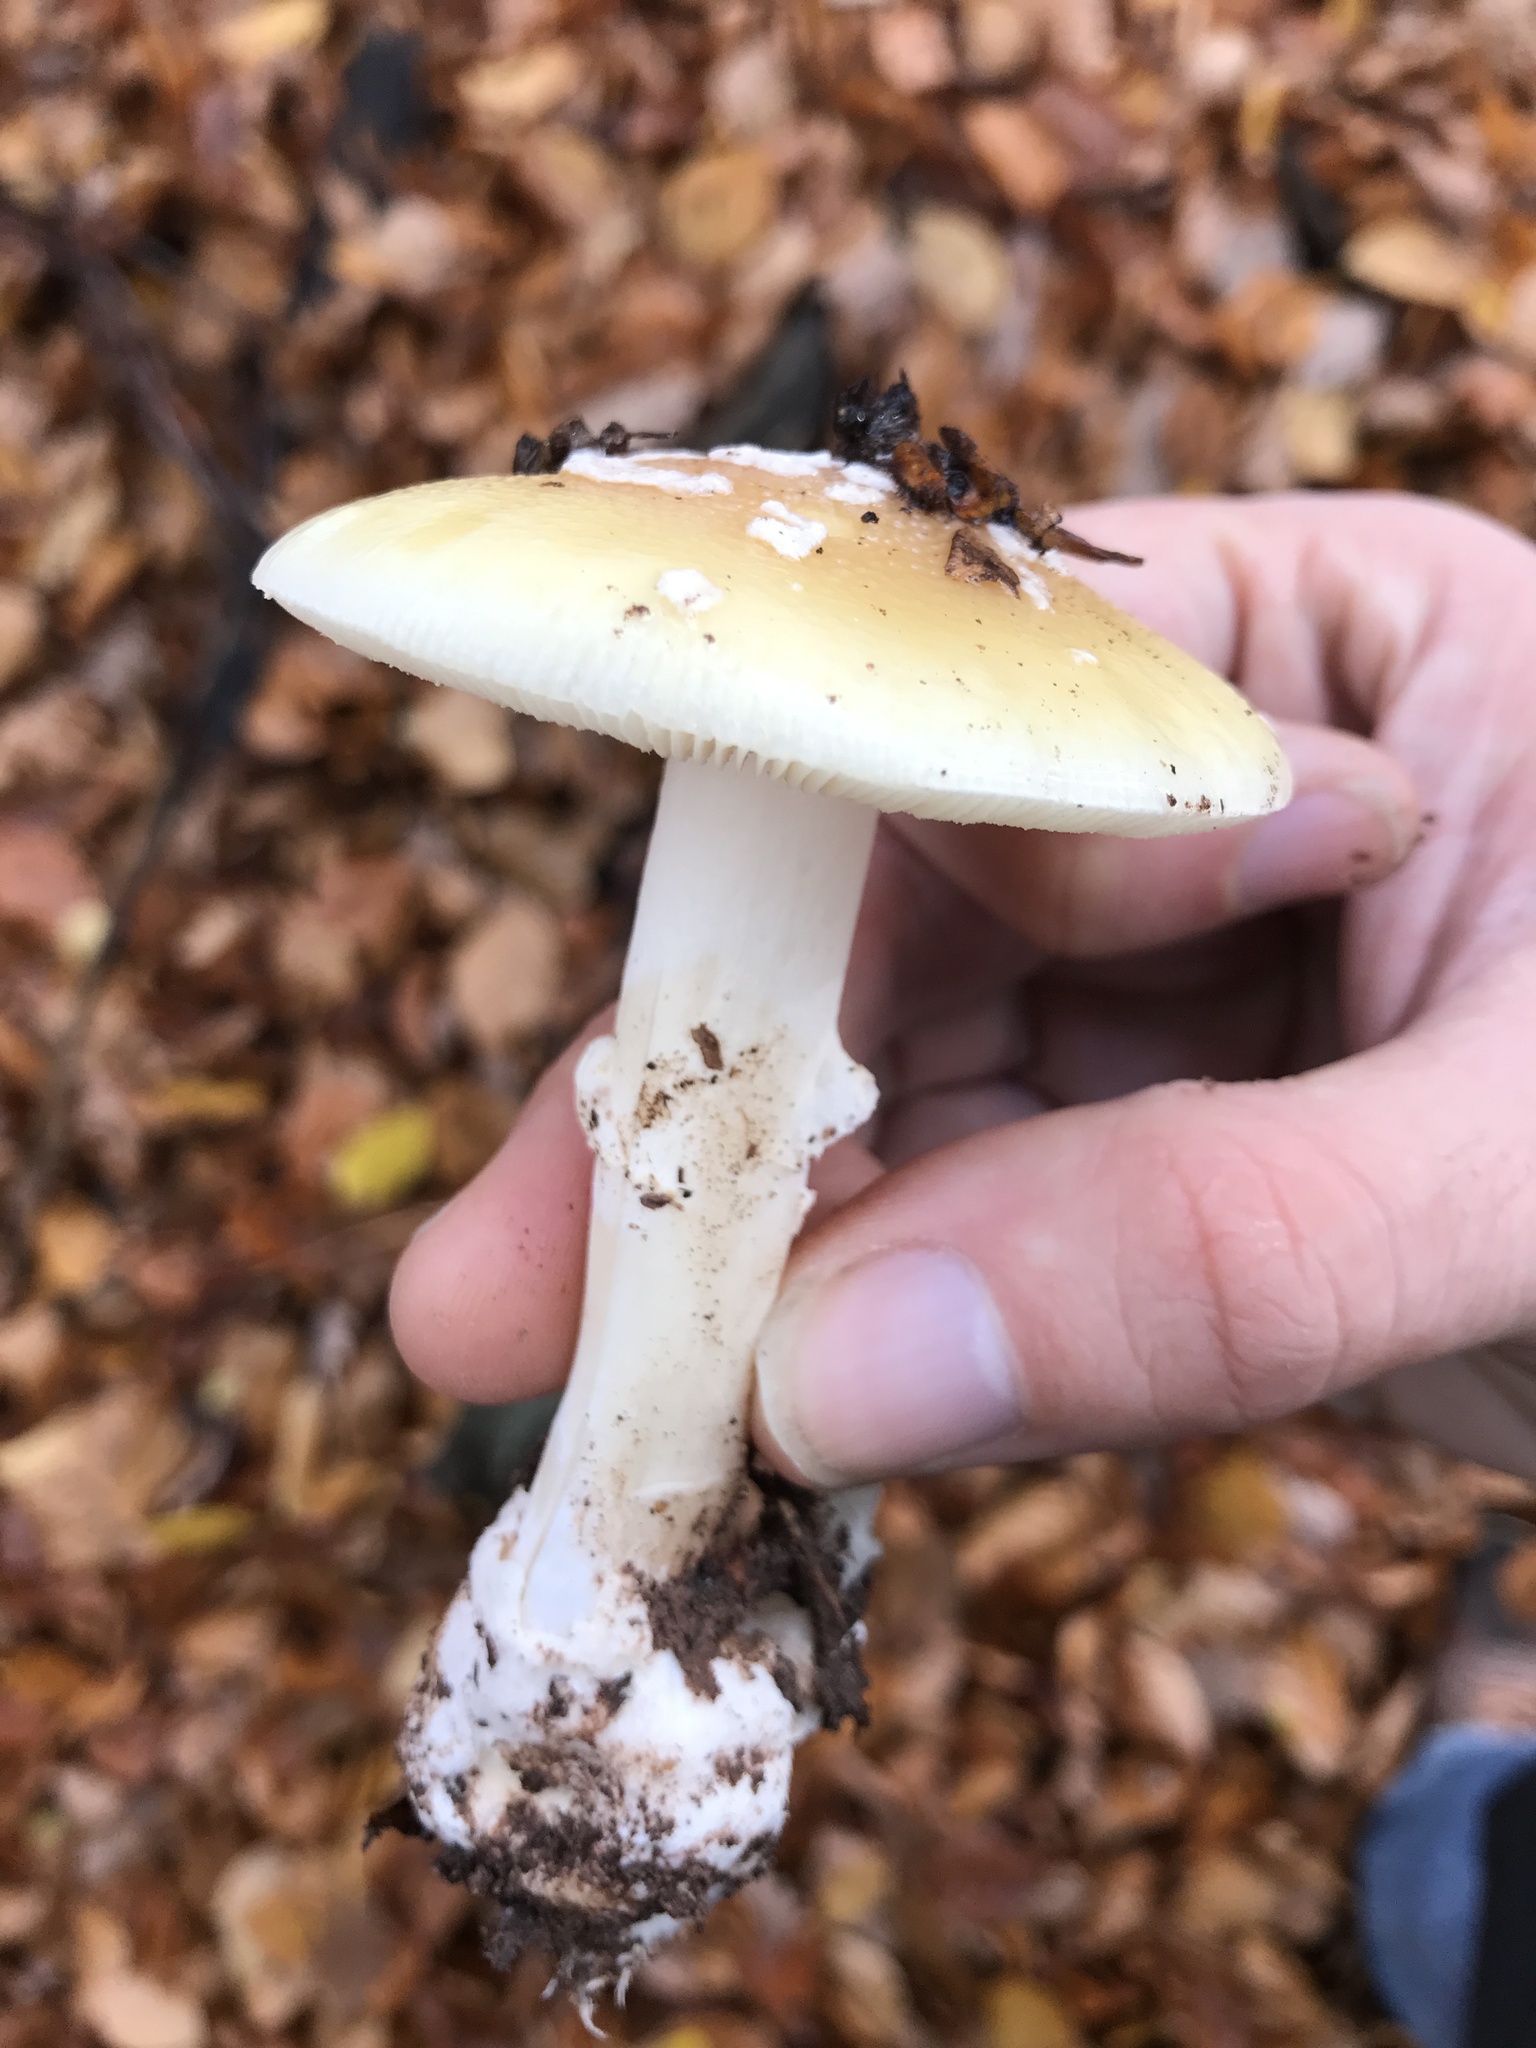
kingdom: Fungi
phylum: Basidiomycota
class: Agaricomycetes
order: Agaricales
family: Amanitaceae
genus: Amanita
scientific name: Amanita gemmata
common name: Jewelled amanita
